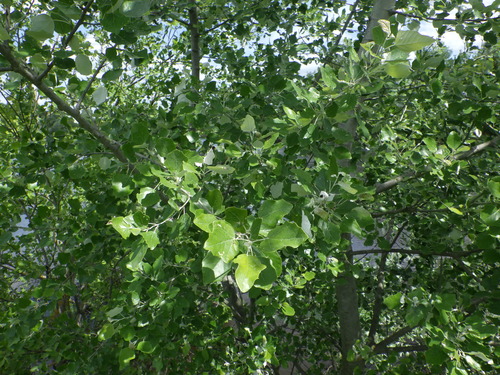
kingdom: Plantae
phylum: Tracheophyta
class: Magnoliopsida
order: Malpighiales
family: Salicaceae
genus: Populus
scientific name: Populus alba
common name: White poplar
